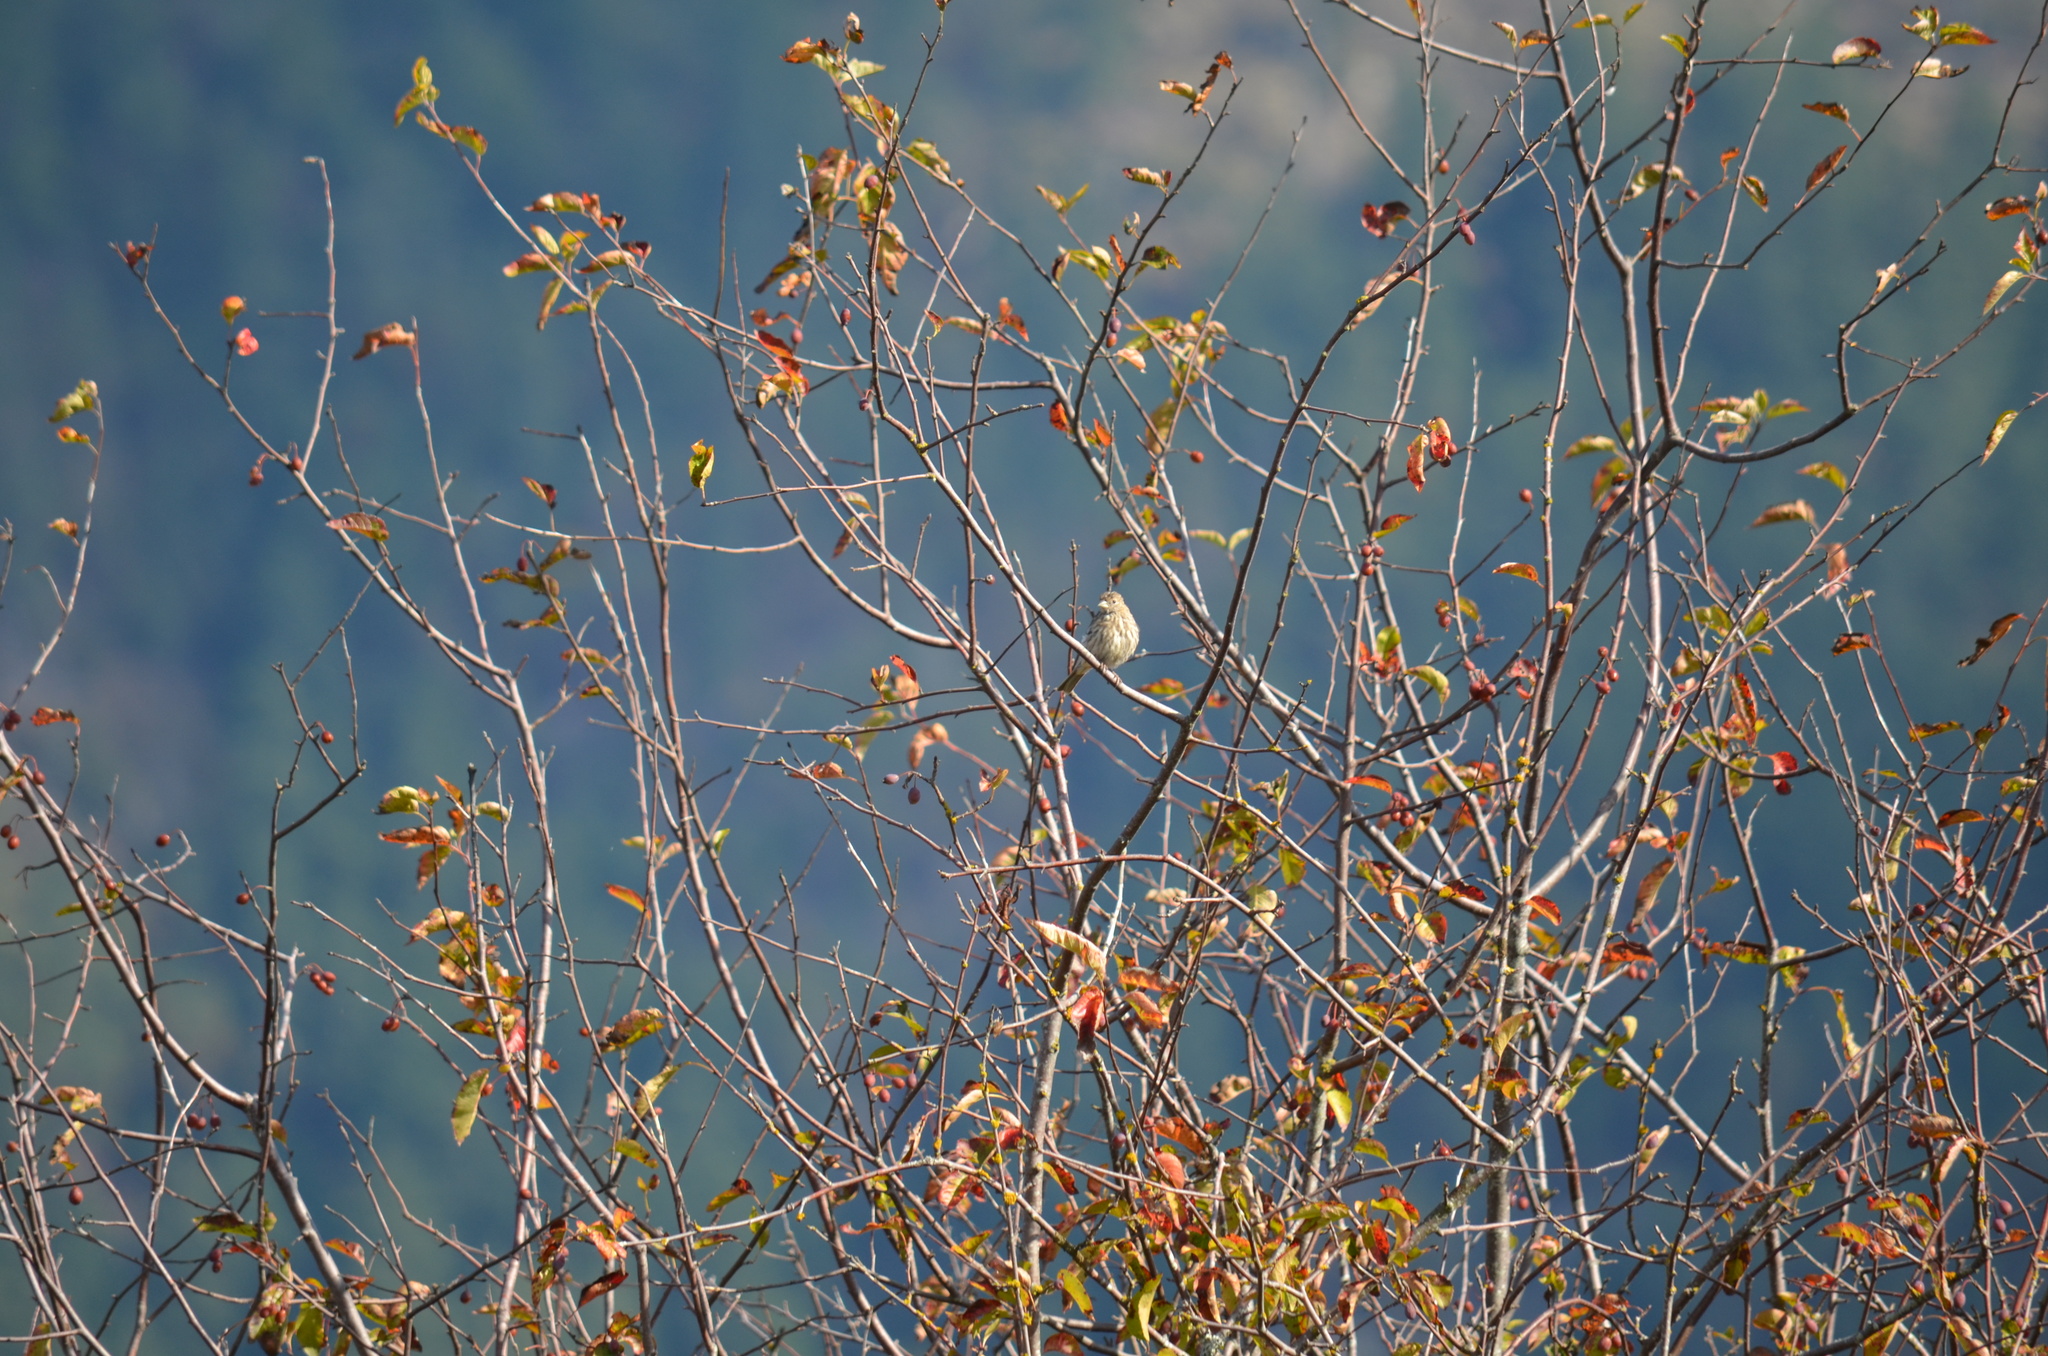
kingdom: Animalia
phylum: Chordata
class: Aves
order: Passeriformes
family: Fringillidae
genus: Haemorhous
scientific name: Haemorhous mexicanus
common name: House finch
